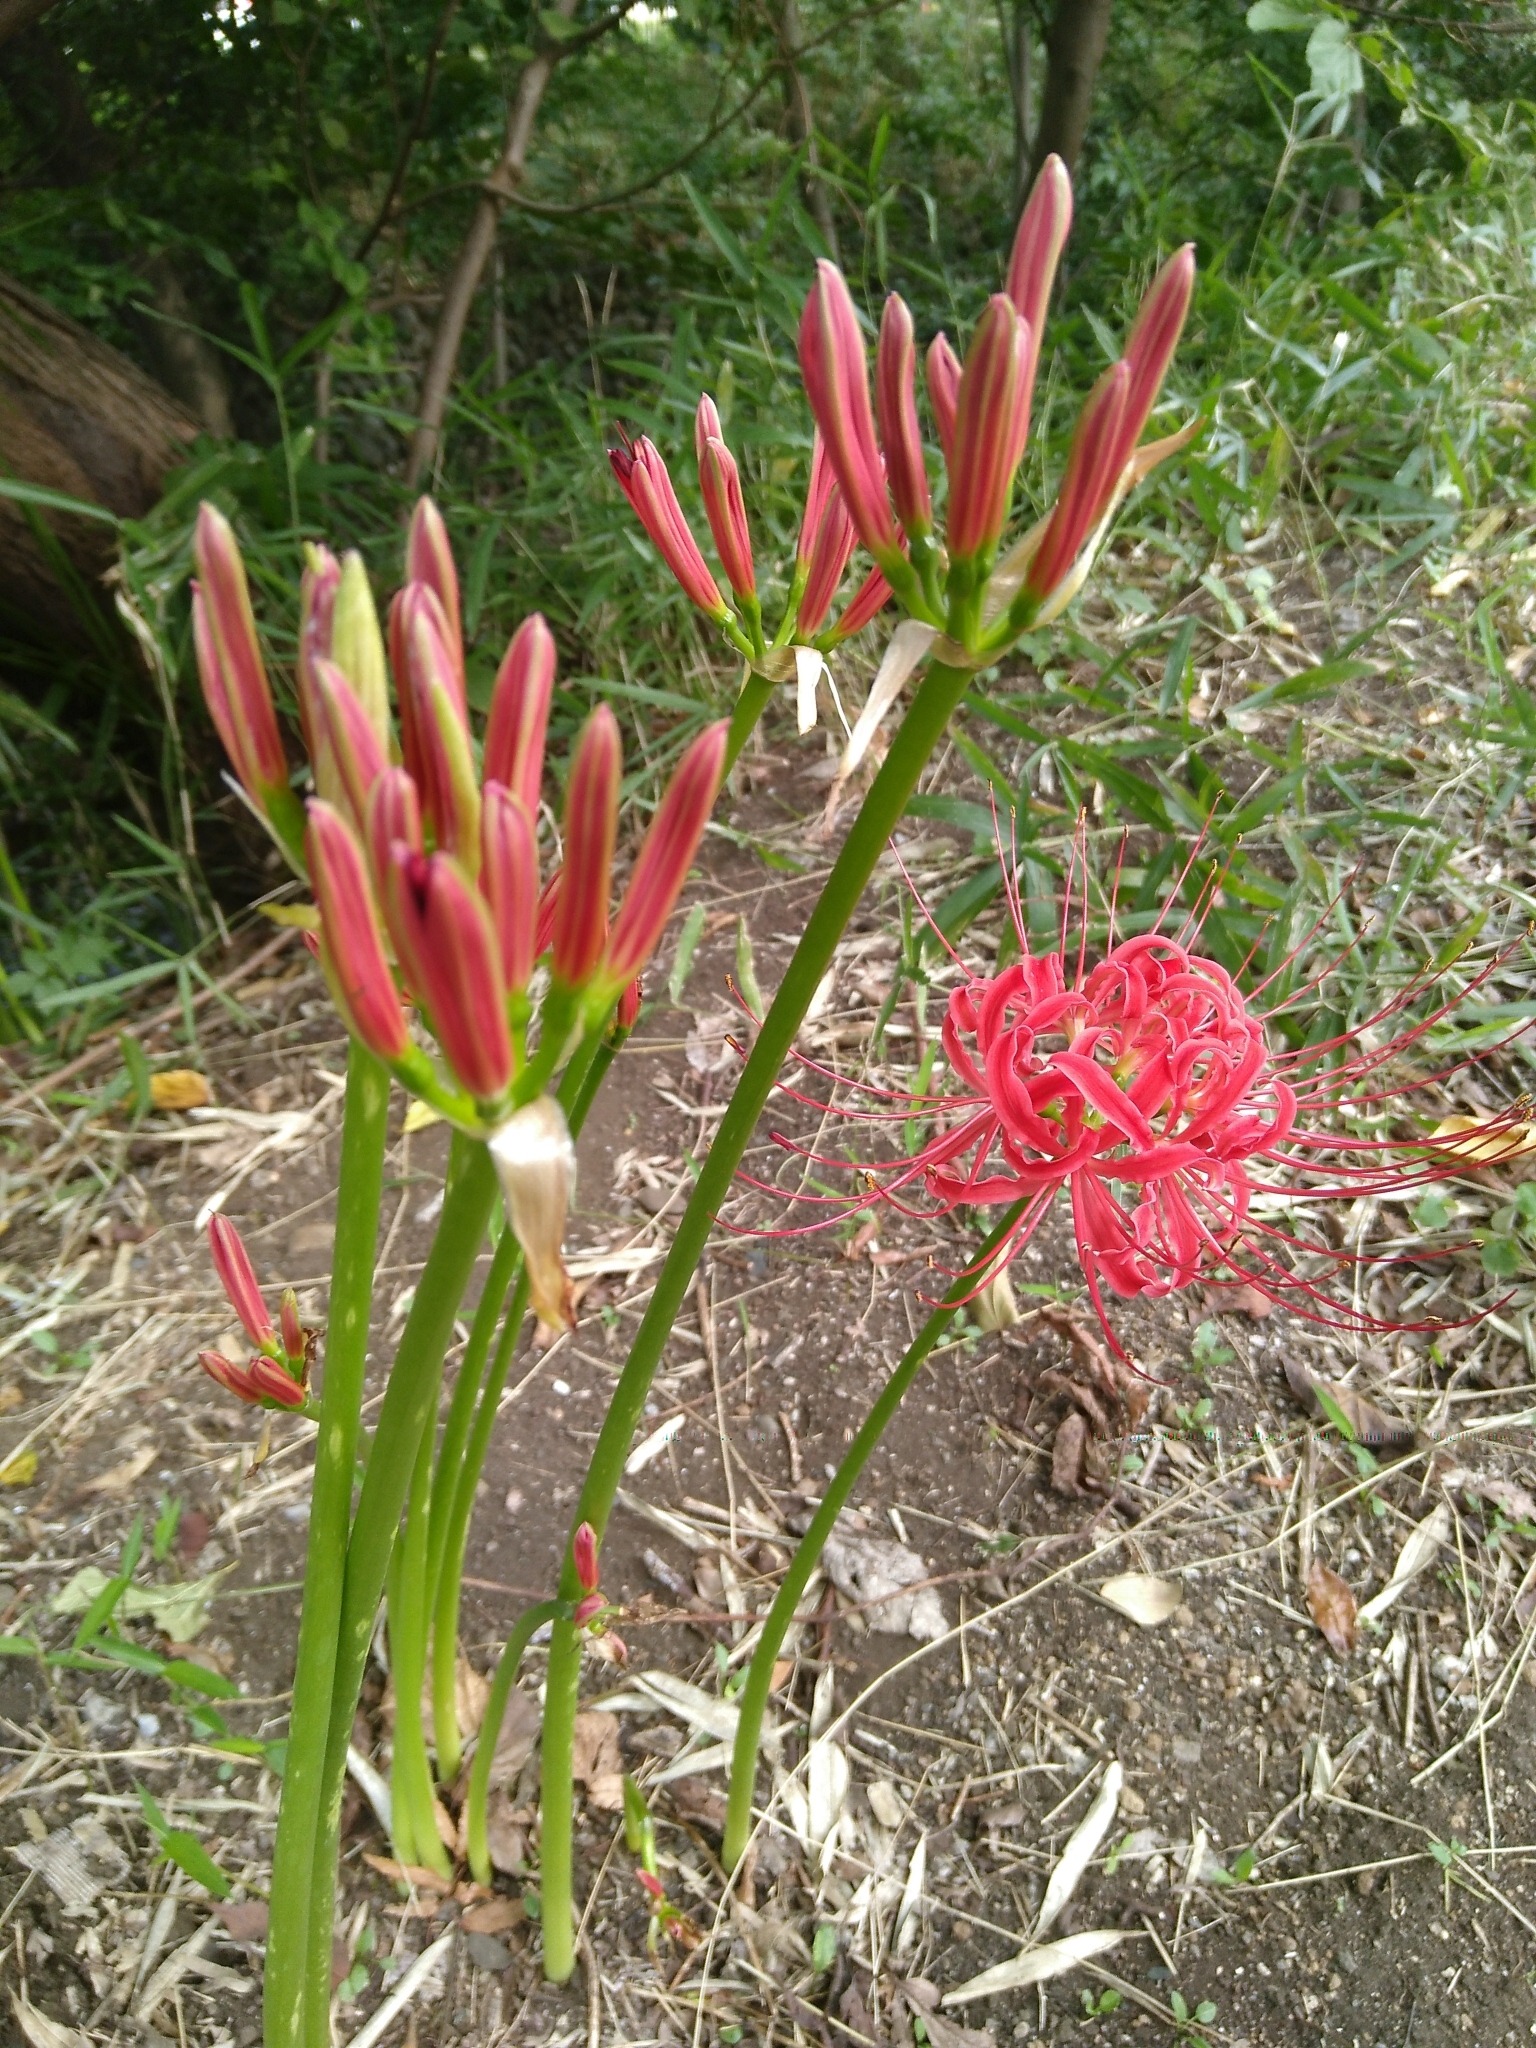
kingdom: Plantae
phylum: Tracheophyta
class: Liliopsida
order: Asparagales
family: Amaryllidaceae
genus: Lycoris
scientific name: Lycoris radiata
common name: Red spider lily
